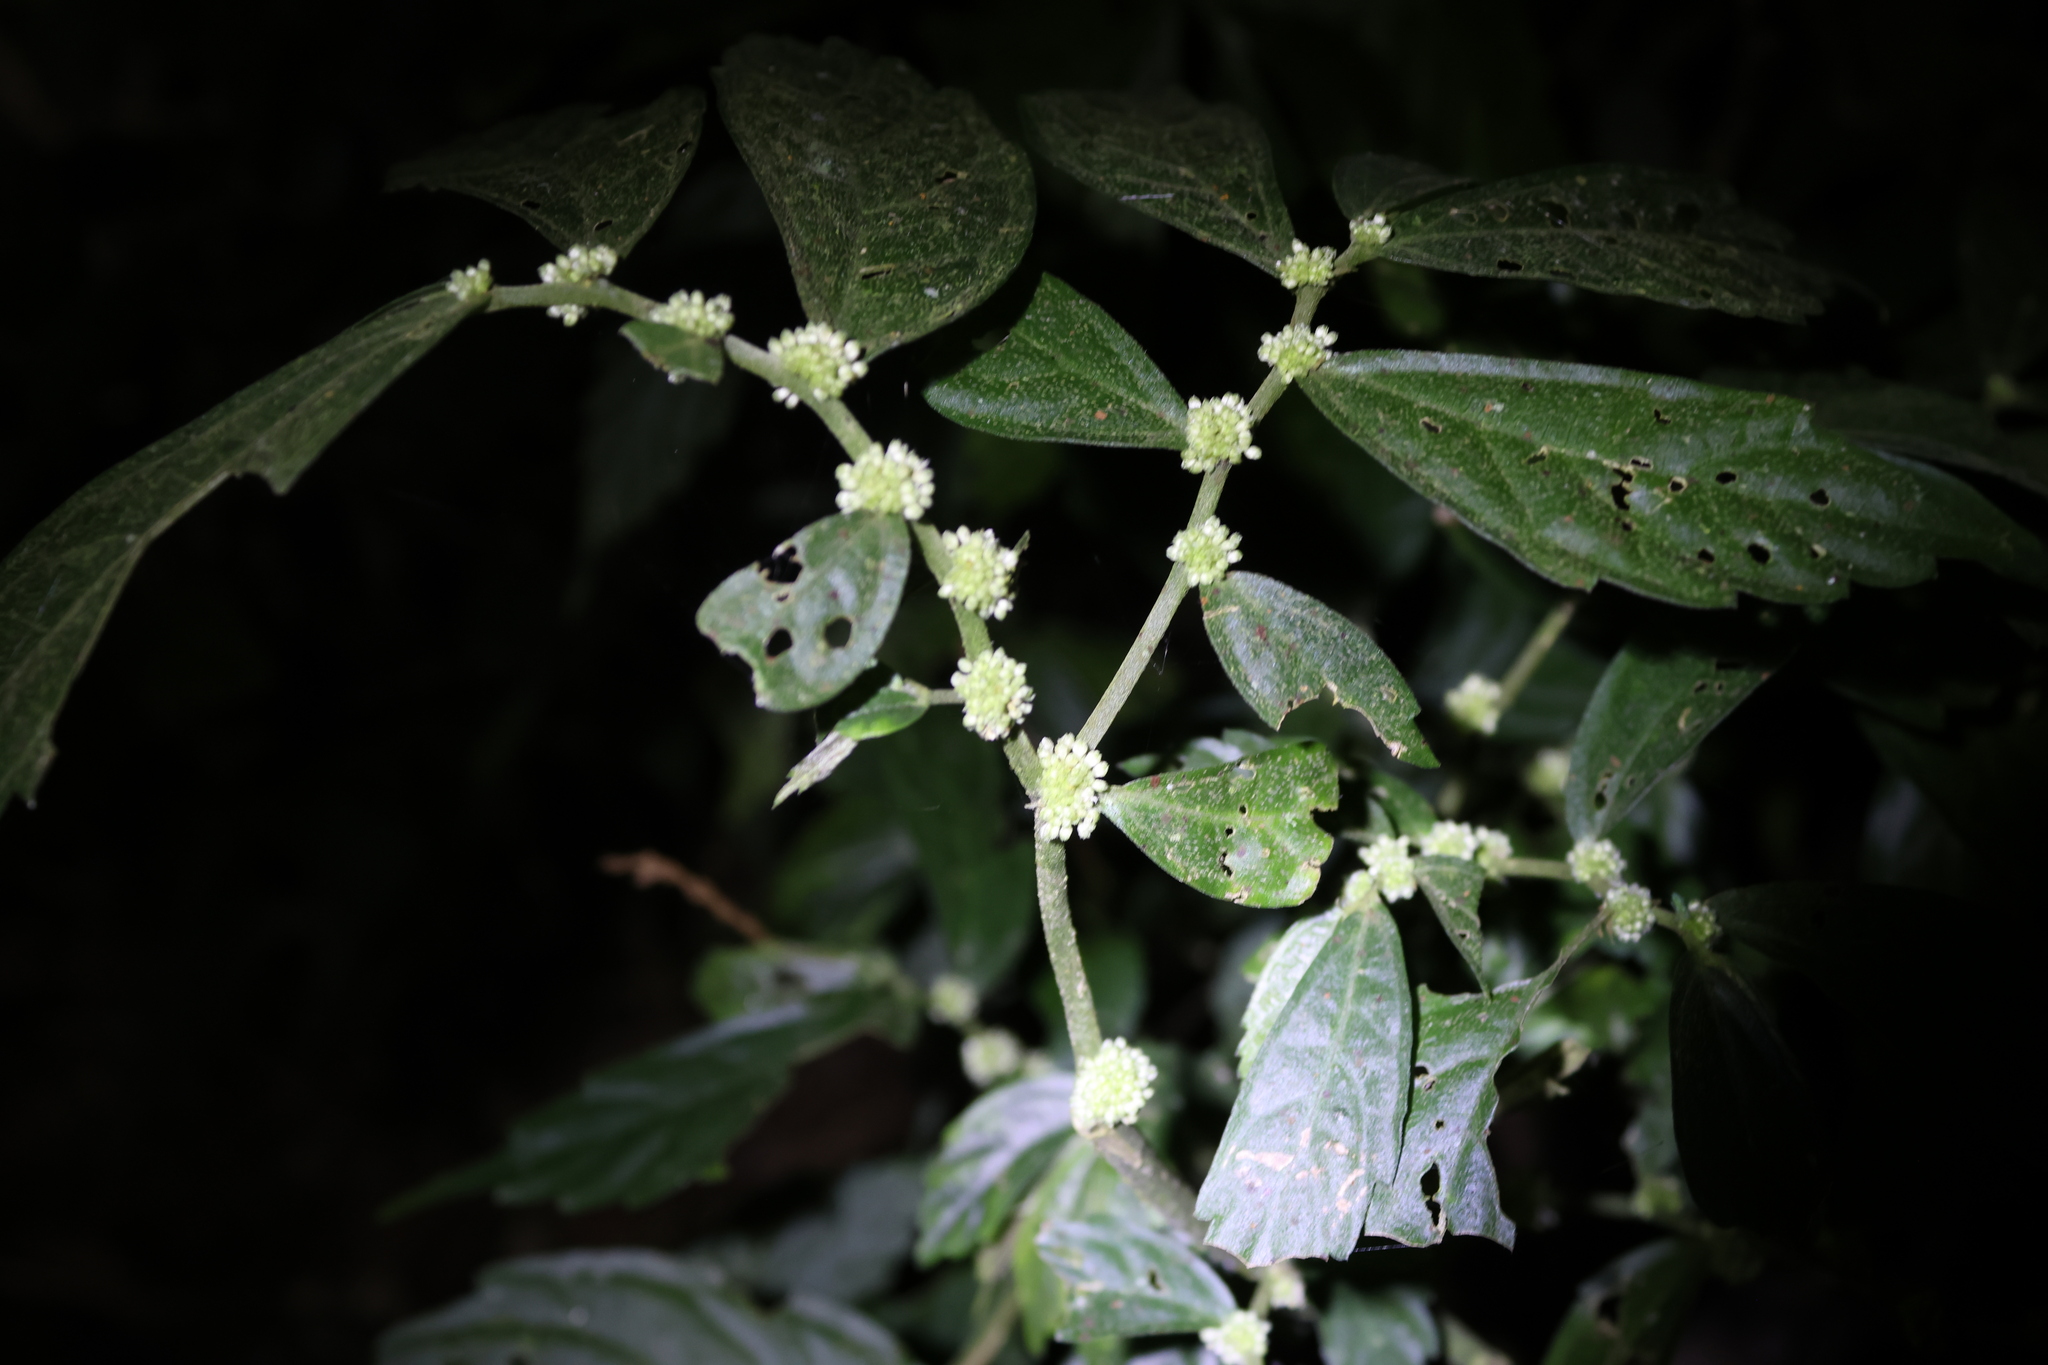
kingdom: Plantae
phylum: Tracheophyta
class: Magnoliopsida
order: Rosales
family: Urticaceae
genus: Elatostema
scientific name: Elatostema lineolatum
